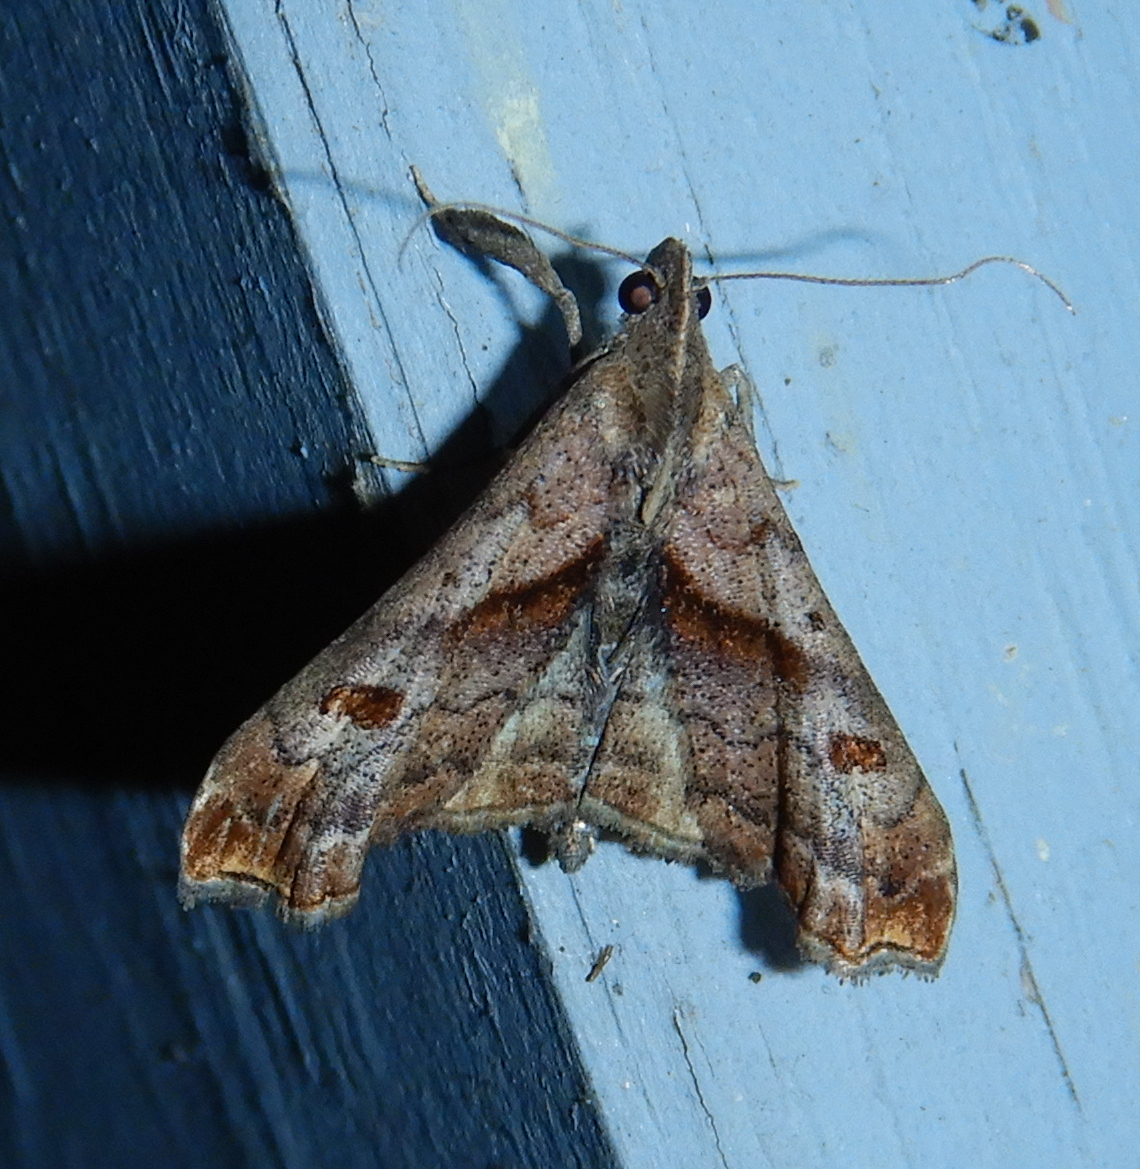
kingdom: Animalia
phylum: Arthropoda
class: Insecta
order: Lepidoptera
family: Erebidae
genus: Palthis
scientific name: Palthis angulalis
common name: Dark-spotted palthis moth
